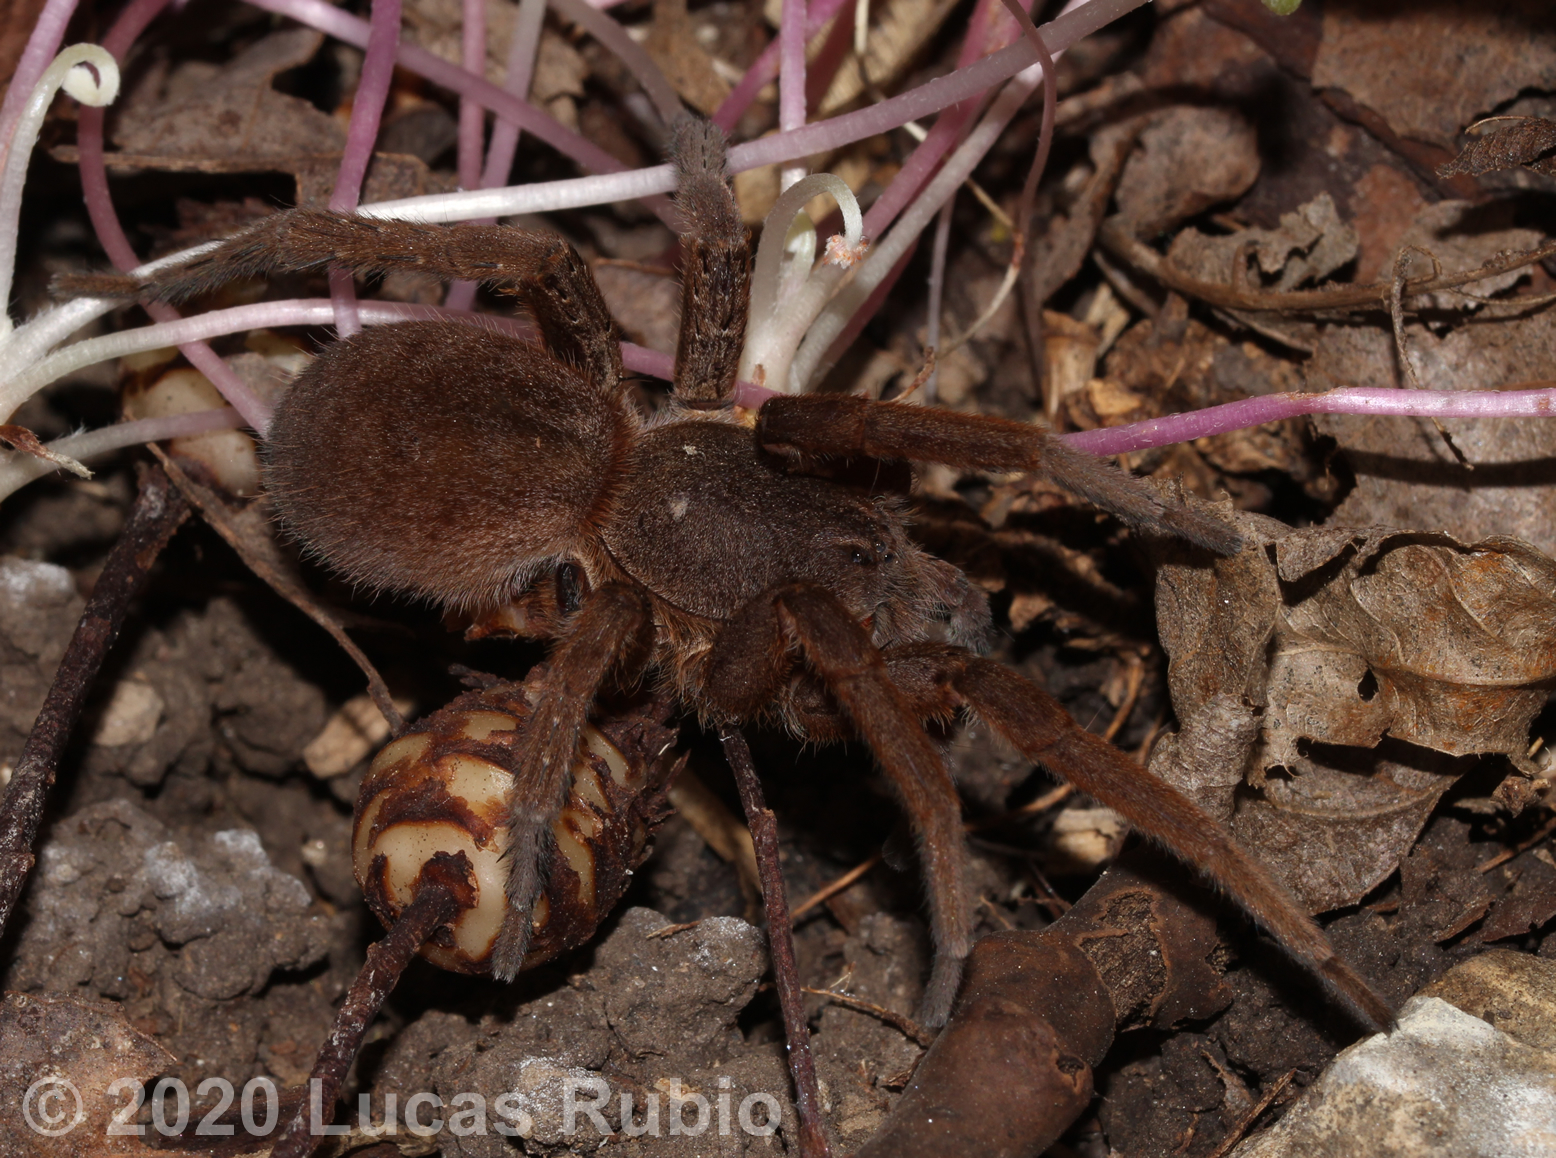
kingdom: Animalia
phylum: Arthropoda
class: Arachnida
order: Araneae
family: Ctenidae
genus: Ancylometes
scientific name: Ancylometes concolor
